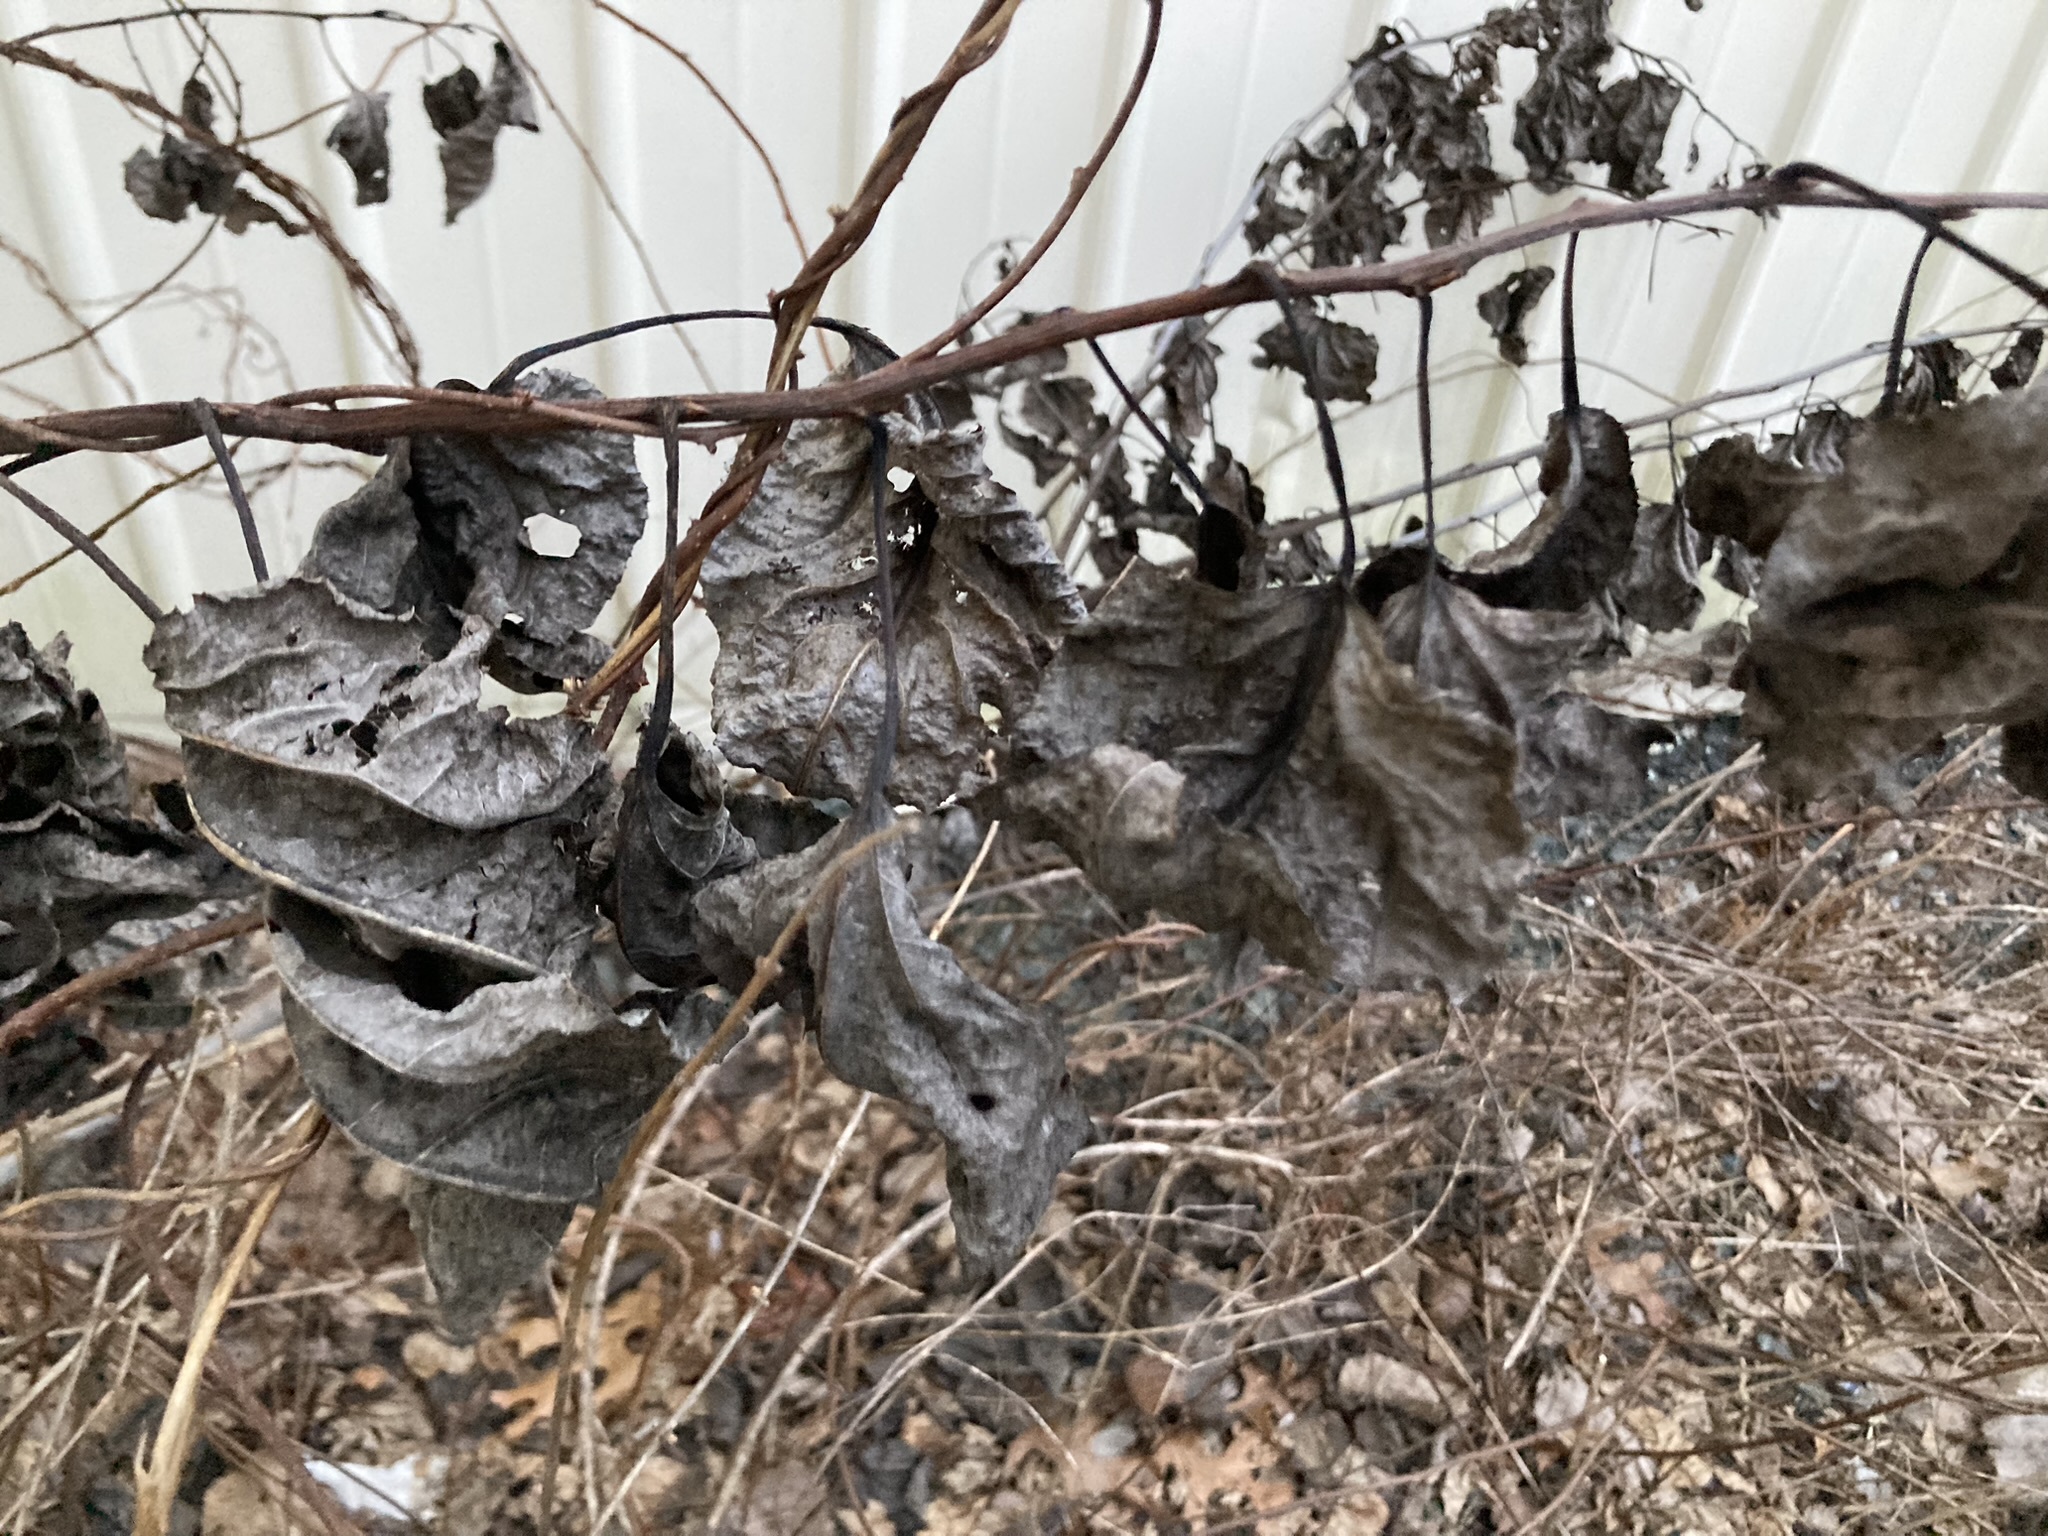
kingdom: Plantae
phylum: Tracheophyta
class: Magnoliopsida
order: Celastrales
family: Celastraceae
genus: Celastrus
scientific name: Celastrus orbiculatus
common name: Oriental bittersweet
